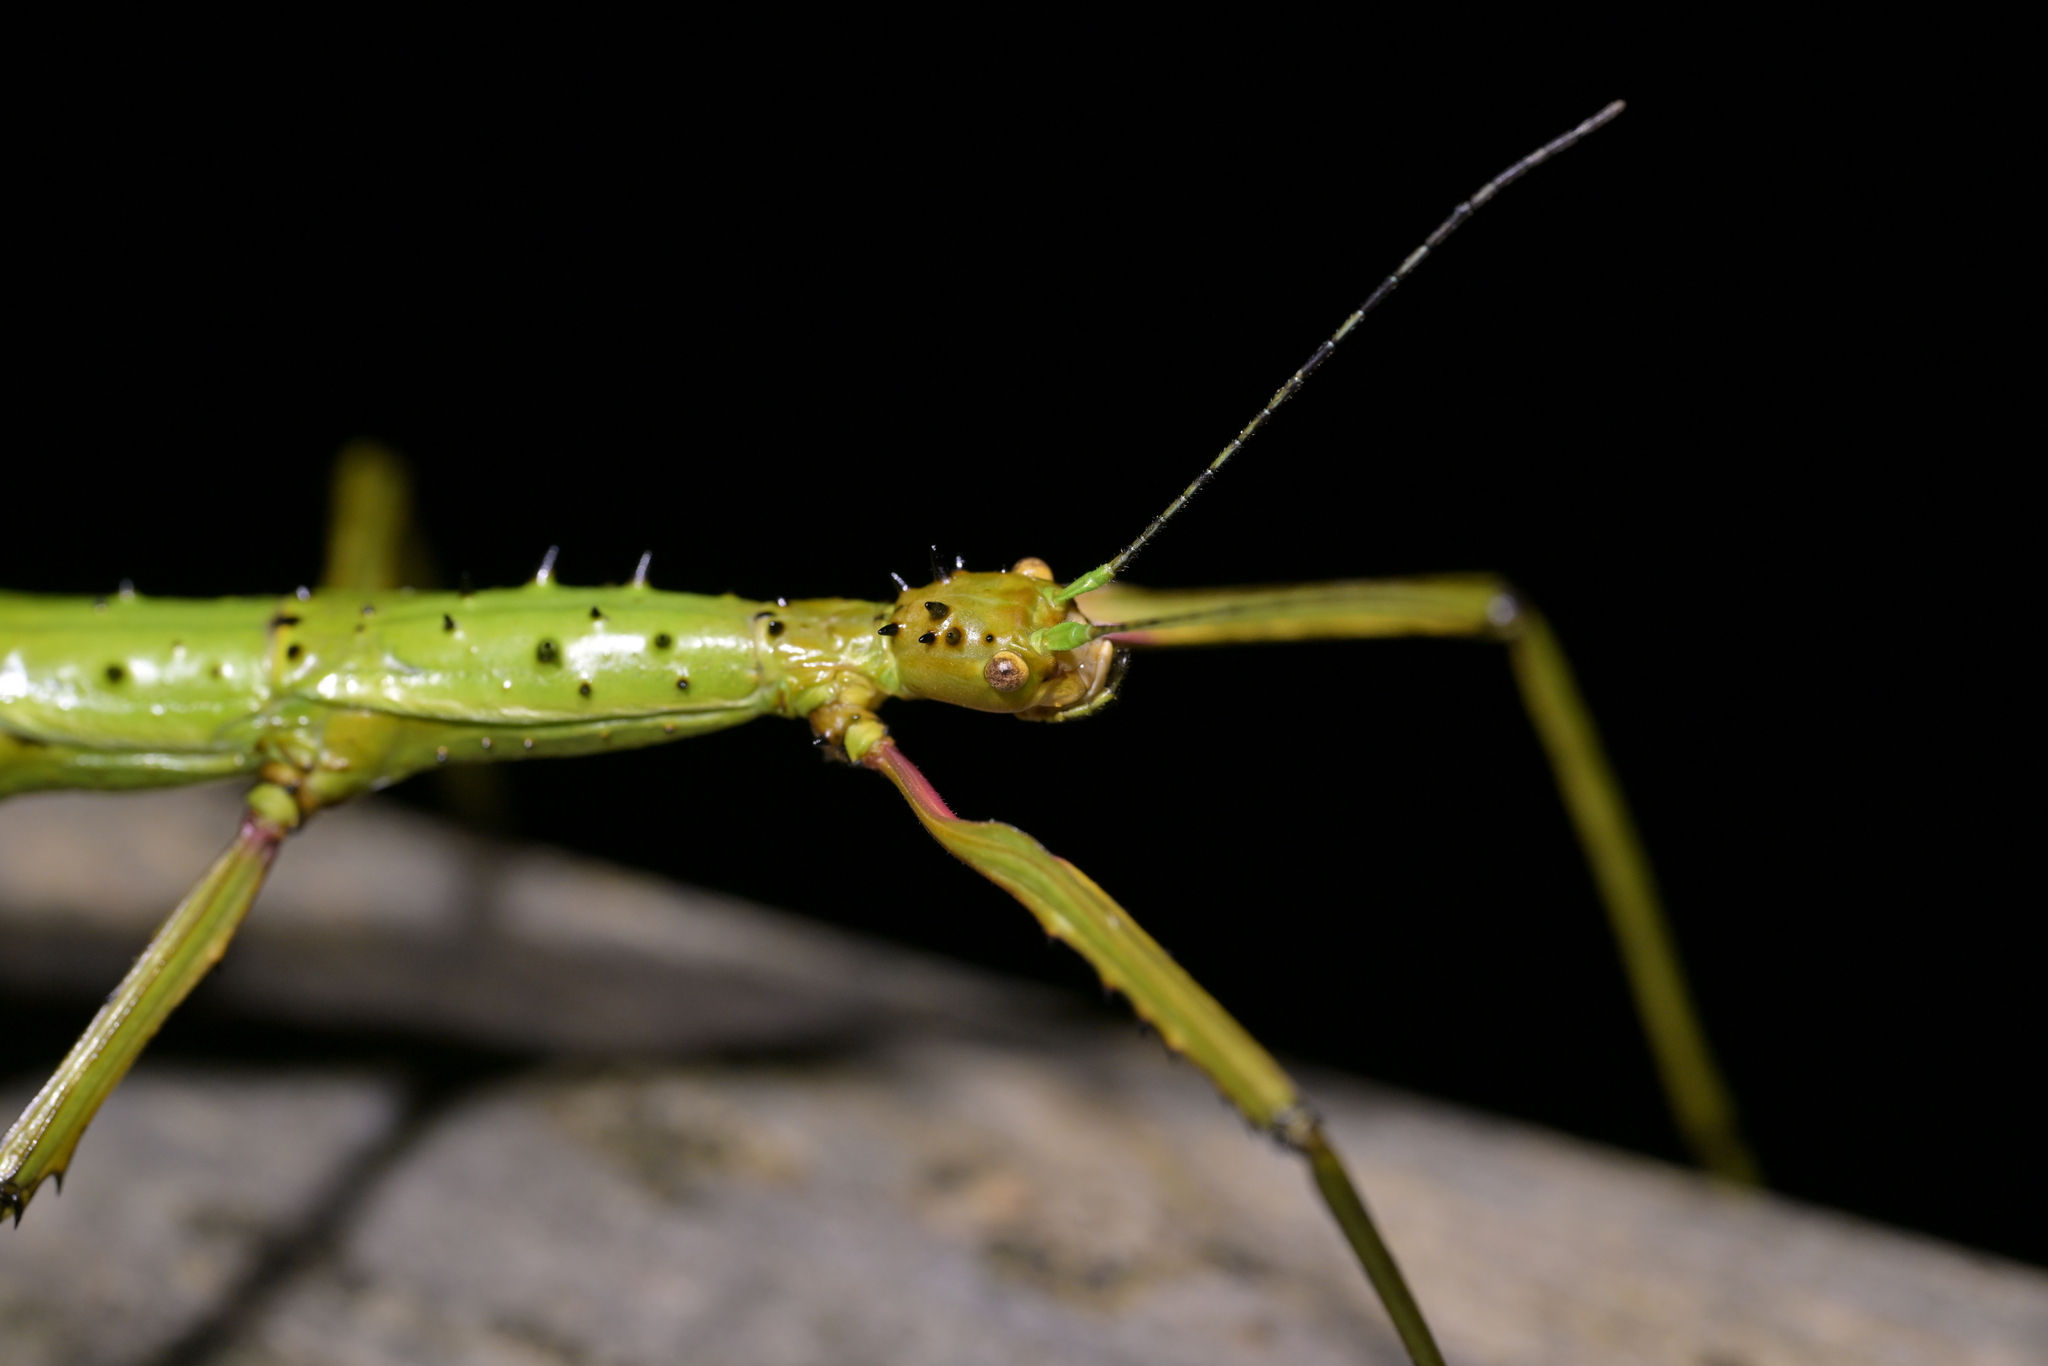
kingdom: Animalia
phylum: Arthropoda
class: Insecta
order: Phasmida
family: Phasmatidae
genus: Acanthoxyla
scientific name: Acanthoxyla prasina
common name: Black-spined stick insect
